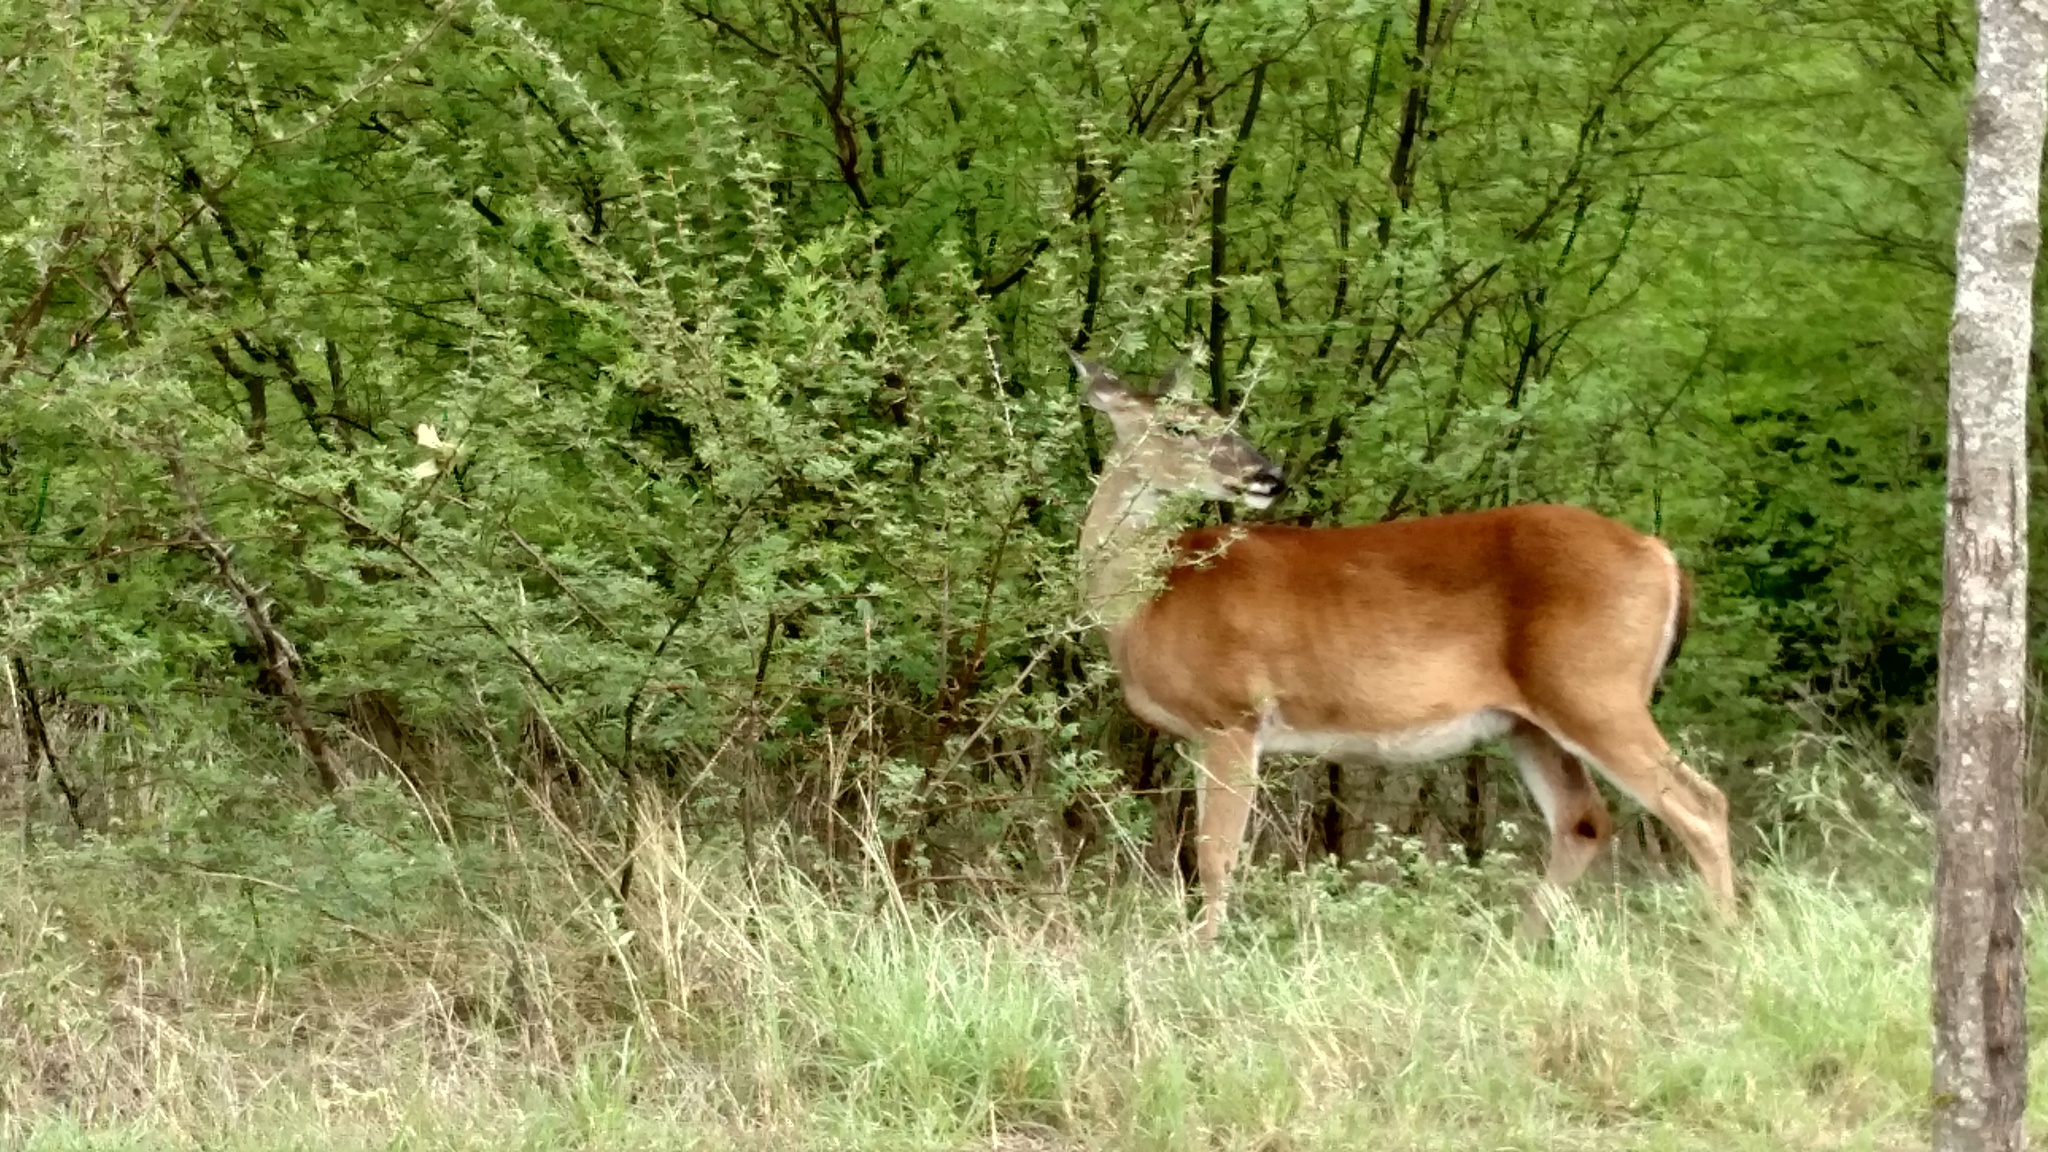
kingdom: Animalia
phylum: Chordata
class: Mammalia
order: Artiodactyla
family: Cervidae
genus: Odocoileus
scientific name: Odocoileus virginianus
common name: White-tailed deer
